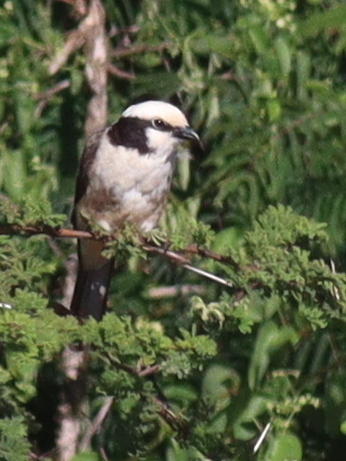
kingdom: Animalia
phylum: Chordata
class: Aves
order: Passeriformes
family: Laniidae
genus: Eurocephalus
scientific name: Eurocephalus ruppelli
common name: Northern white-crowned shrike
